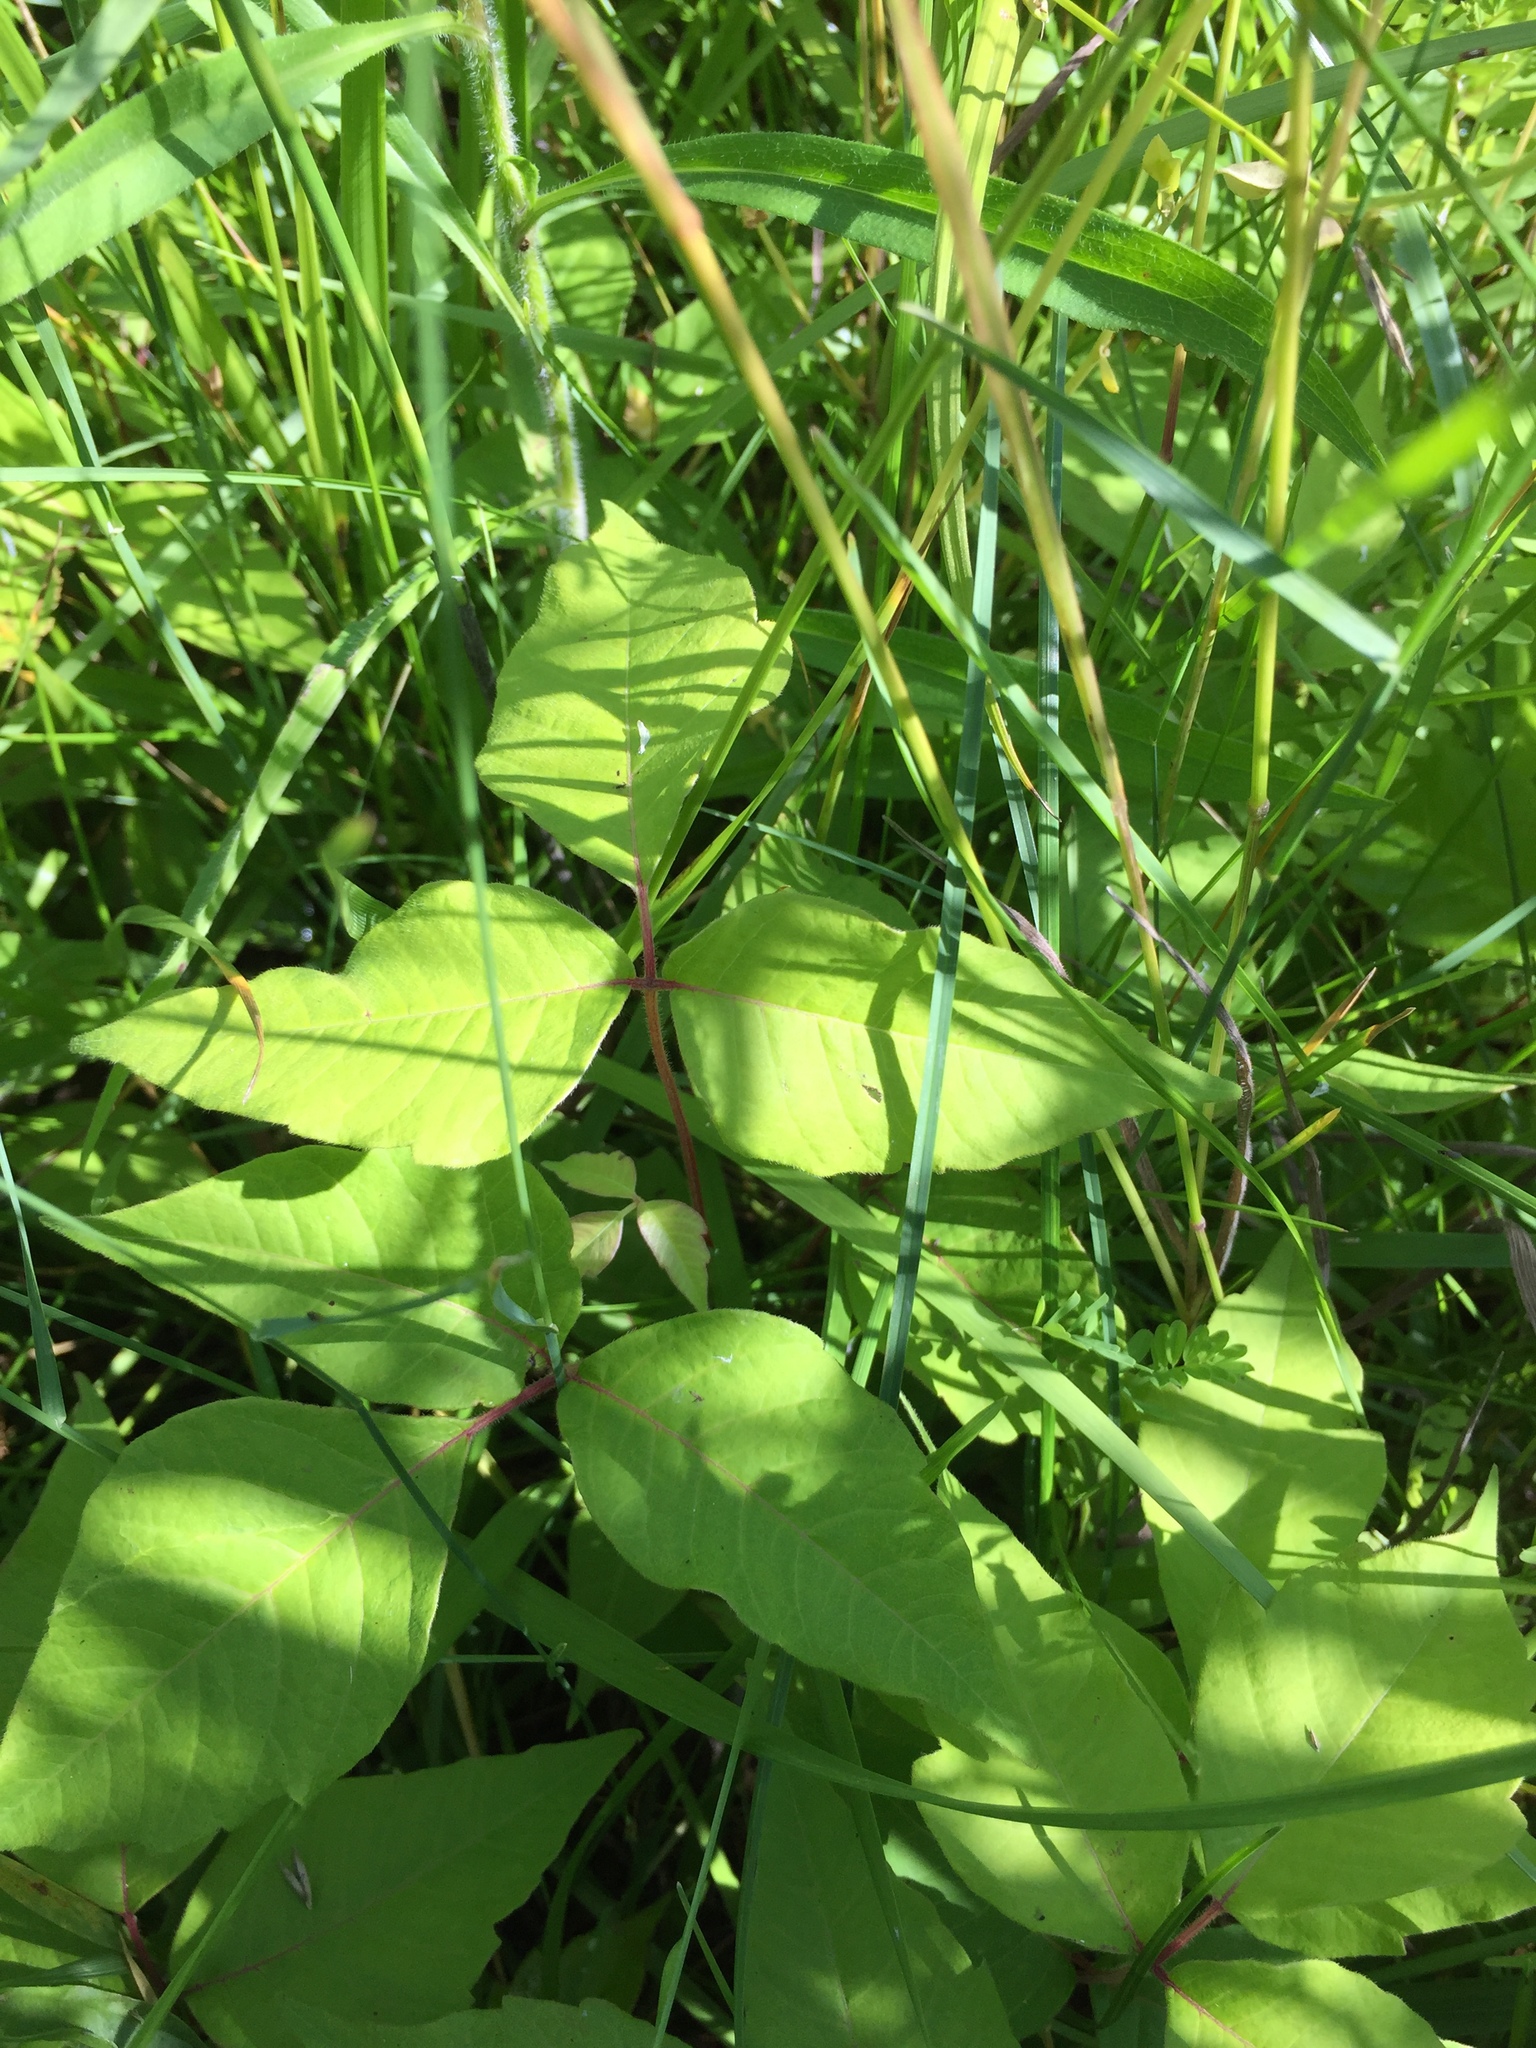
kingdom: Plantae
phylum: Tracheophyta
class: Magnoliopsida
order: Sapindales
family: Anacardiaceae
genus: Toxicodendron
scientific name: Toxicodendron radicans
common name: Poison ivy
